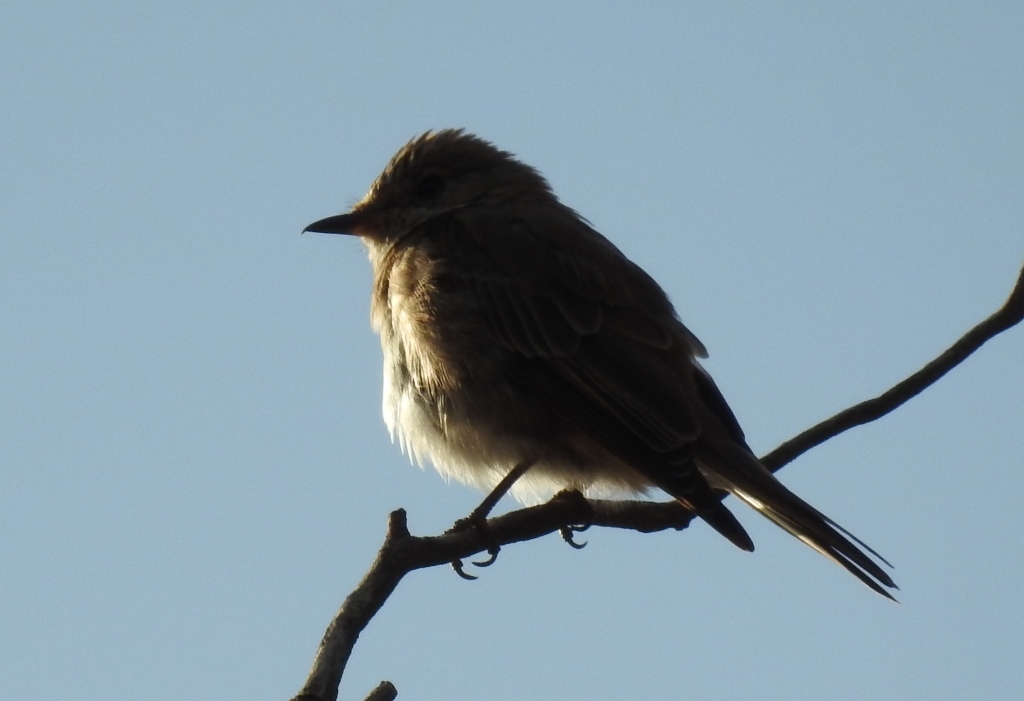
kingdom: Animalia
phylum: Chordata
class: Aves
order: Passeriformes
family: Muscicapidae
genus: Muscicapa
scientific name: Muscicapa striata
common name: Spotted flycatcher
